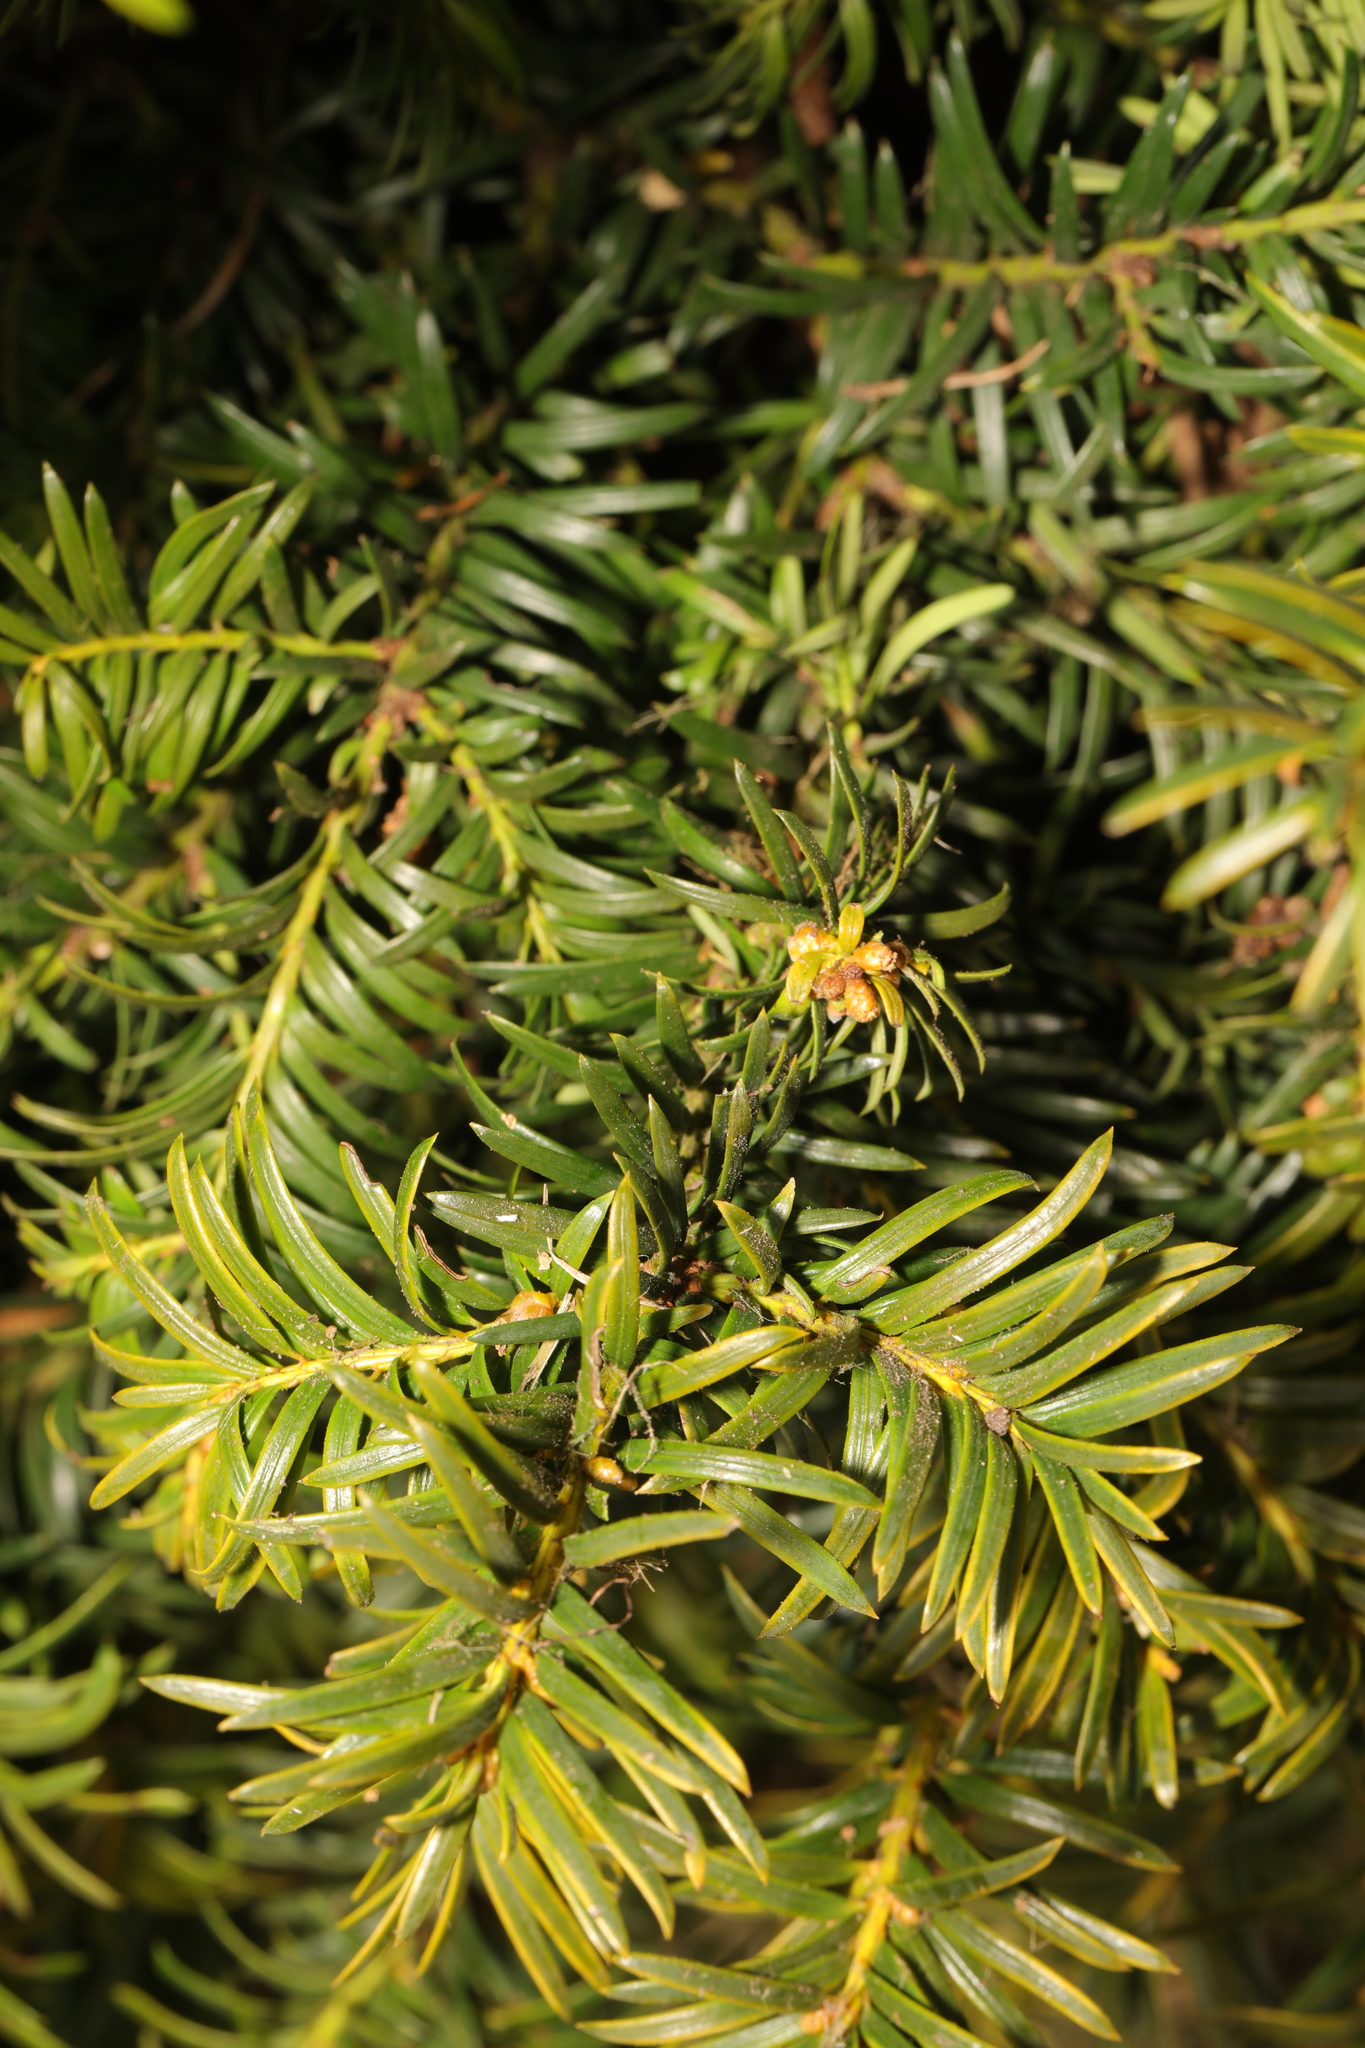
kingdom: Plantae
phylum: Tracheophyta
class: Pinopsida
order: Pinales
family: Taxaceae
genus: Taxus
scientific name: Taxus baccata
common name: Yew
